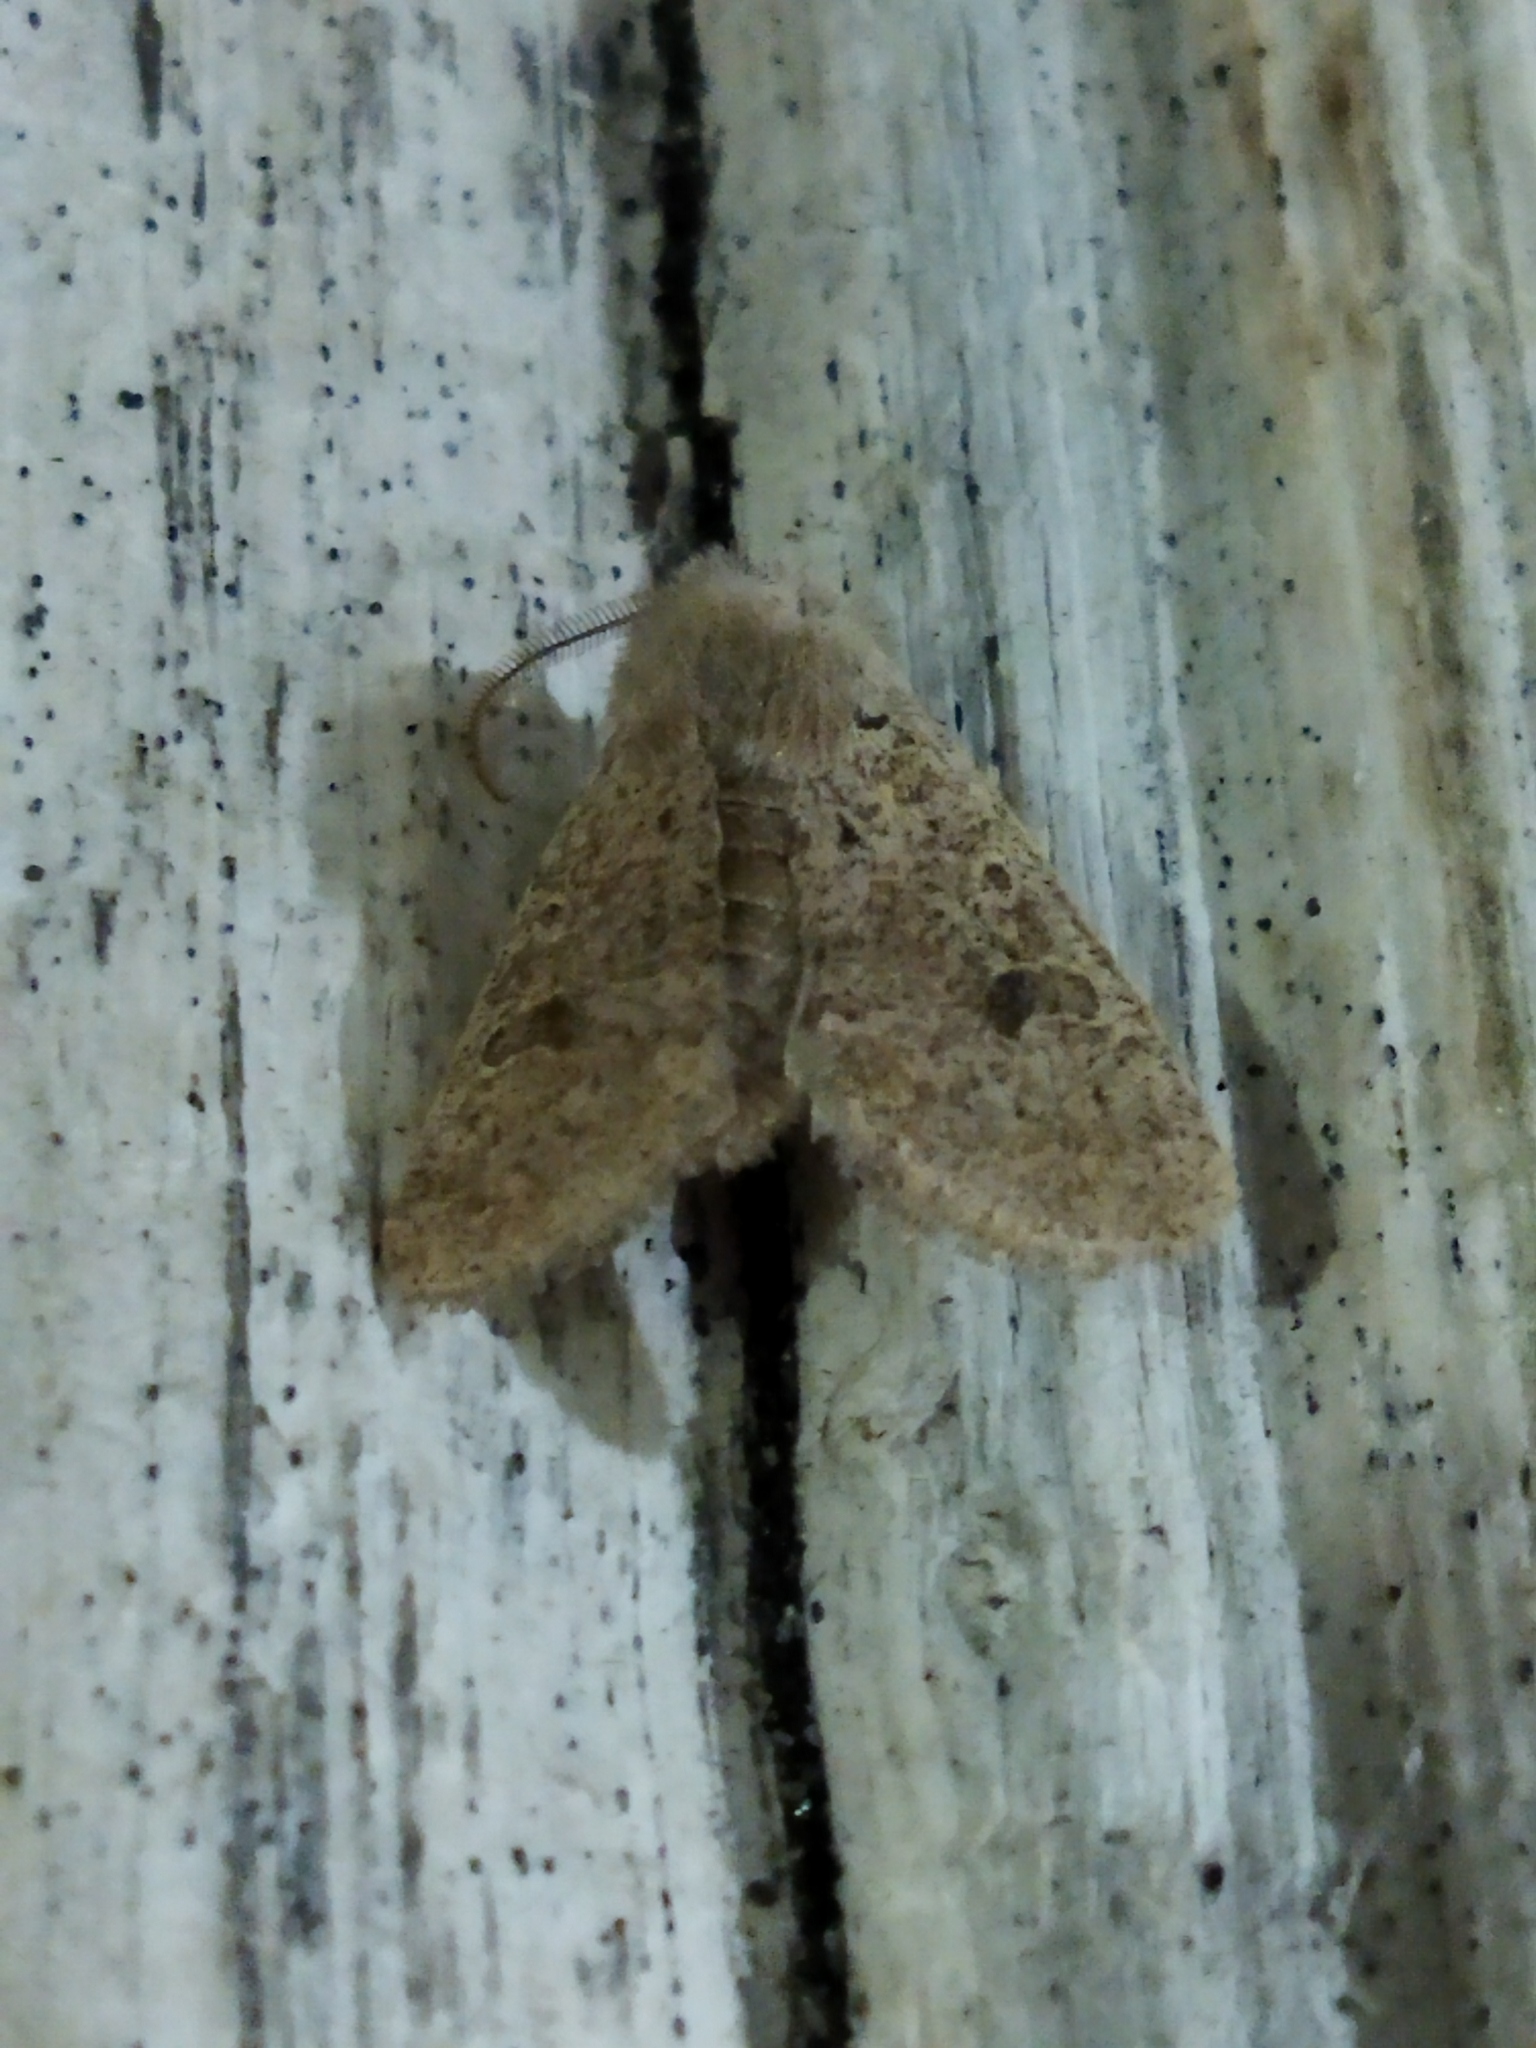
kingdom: Animalia
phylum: Arthropoda
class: Insecta
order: Lepidoptera
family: Noctuidae
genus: Orthosia
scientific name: Orthosia cruda
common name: Small quaker
